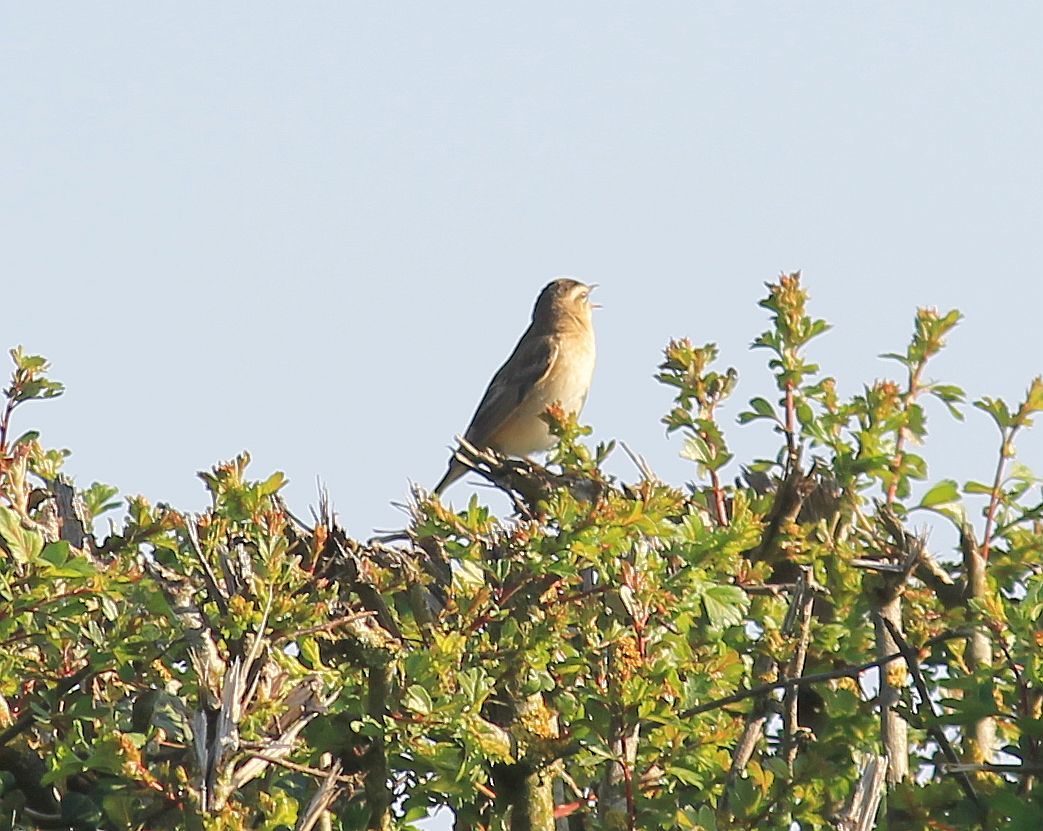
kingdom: Animalia
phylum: Chordata
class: Aves
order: Passeriformes
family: Acrocephalidae
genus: Acrocephalus
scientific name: Acrocephalus schoenobaenus
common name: Sedge warbler
